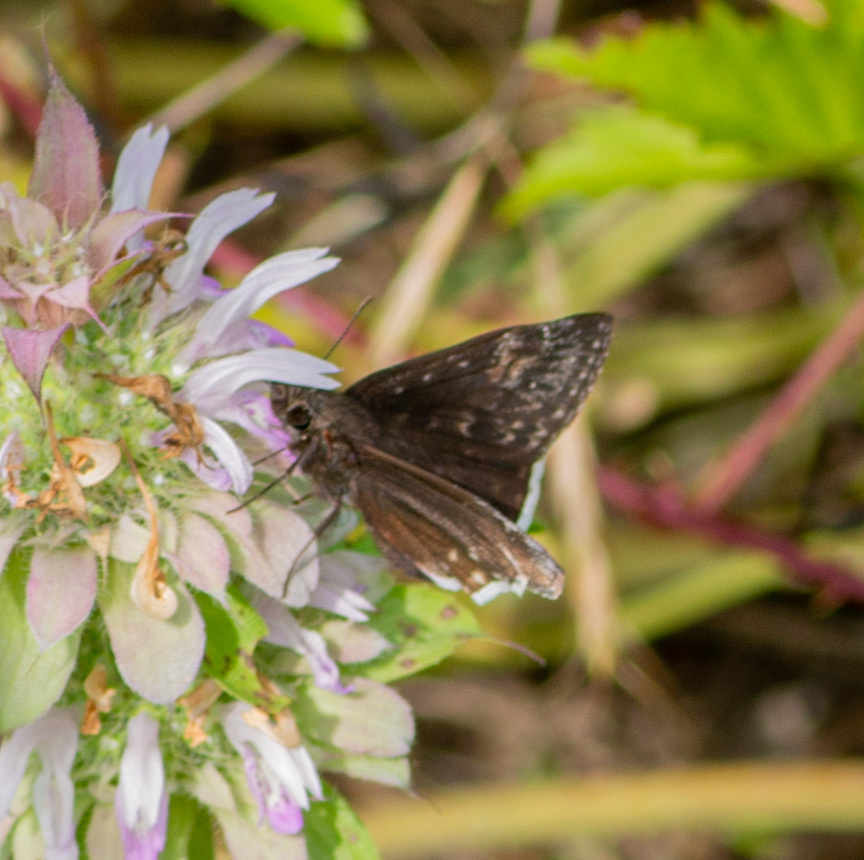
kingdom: Animalia
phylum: Arthropoda
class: Insecta
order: Lepidoptera
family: Hesperiidae
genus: Erynnis
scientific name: Erynnis funeralis
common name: Funereal duskywing
